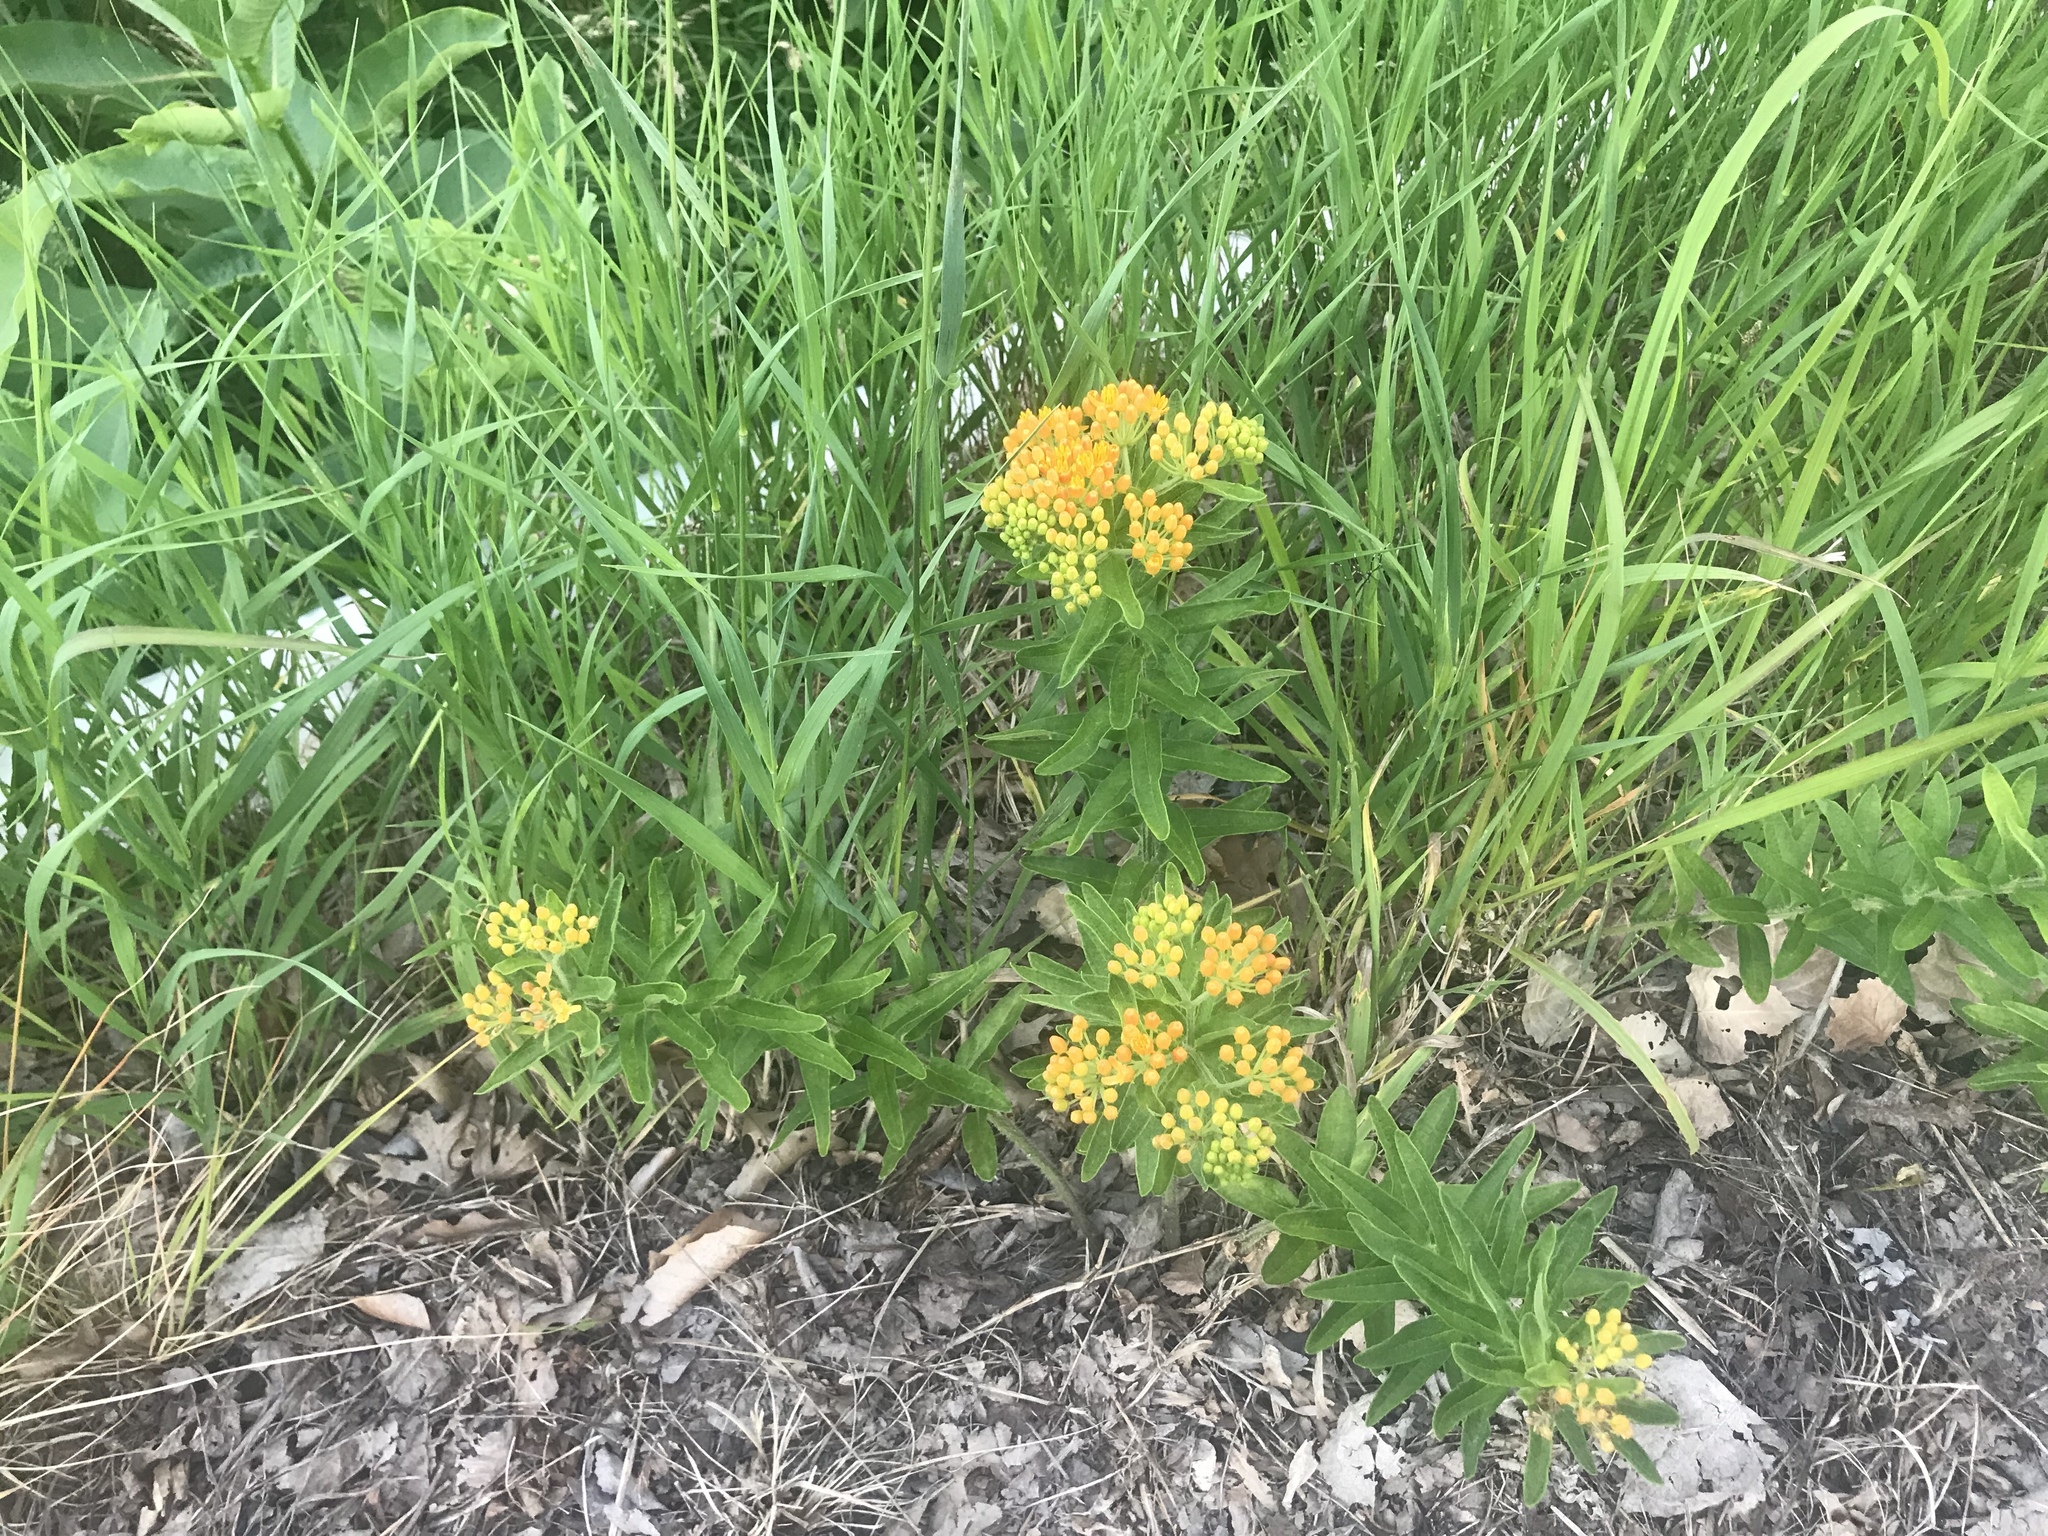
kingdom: Plantae
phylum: Tracheophyta
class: Magnoliopsida
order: Gentianales
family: Apocynaceae
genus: Asclepias
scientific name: Asclepias tuberosa
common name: Butterfly milkweed
